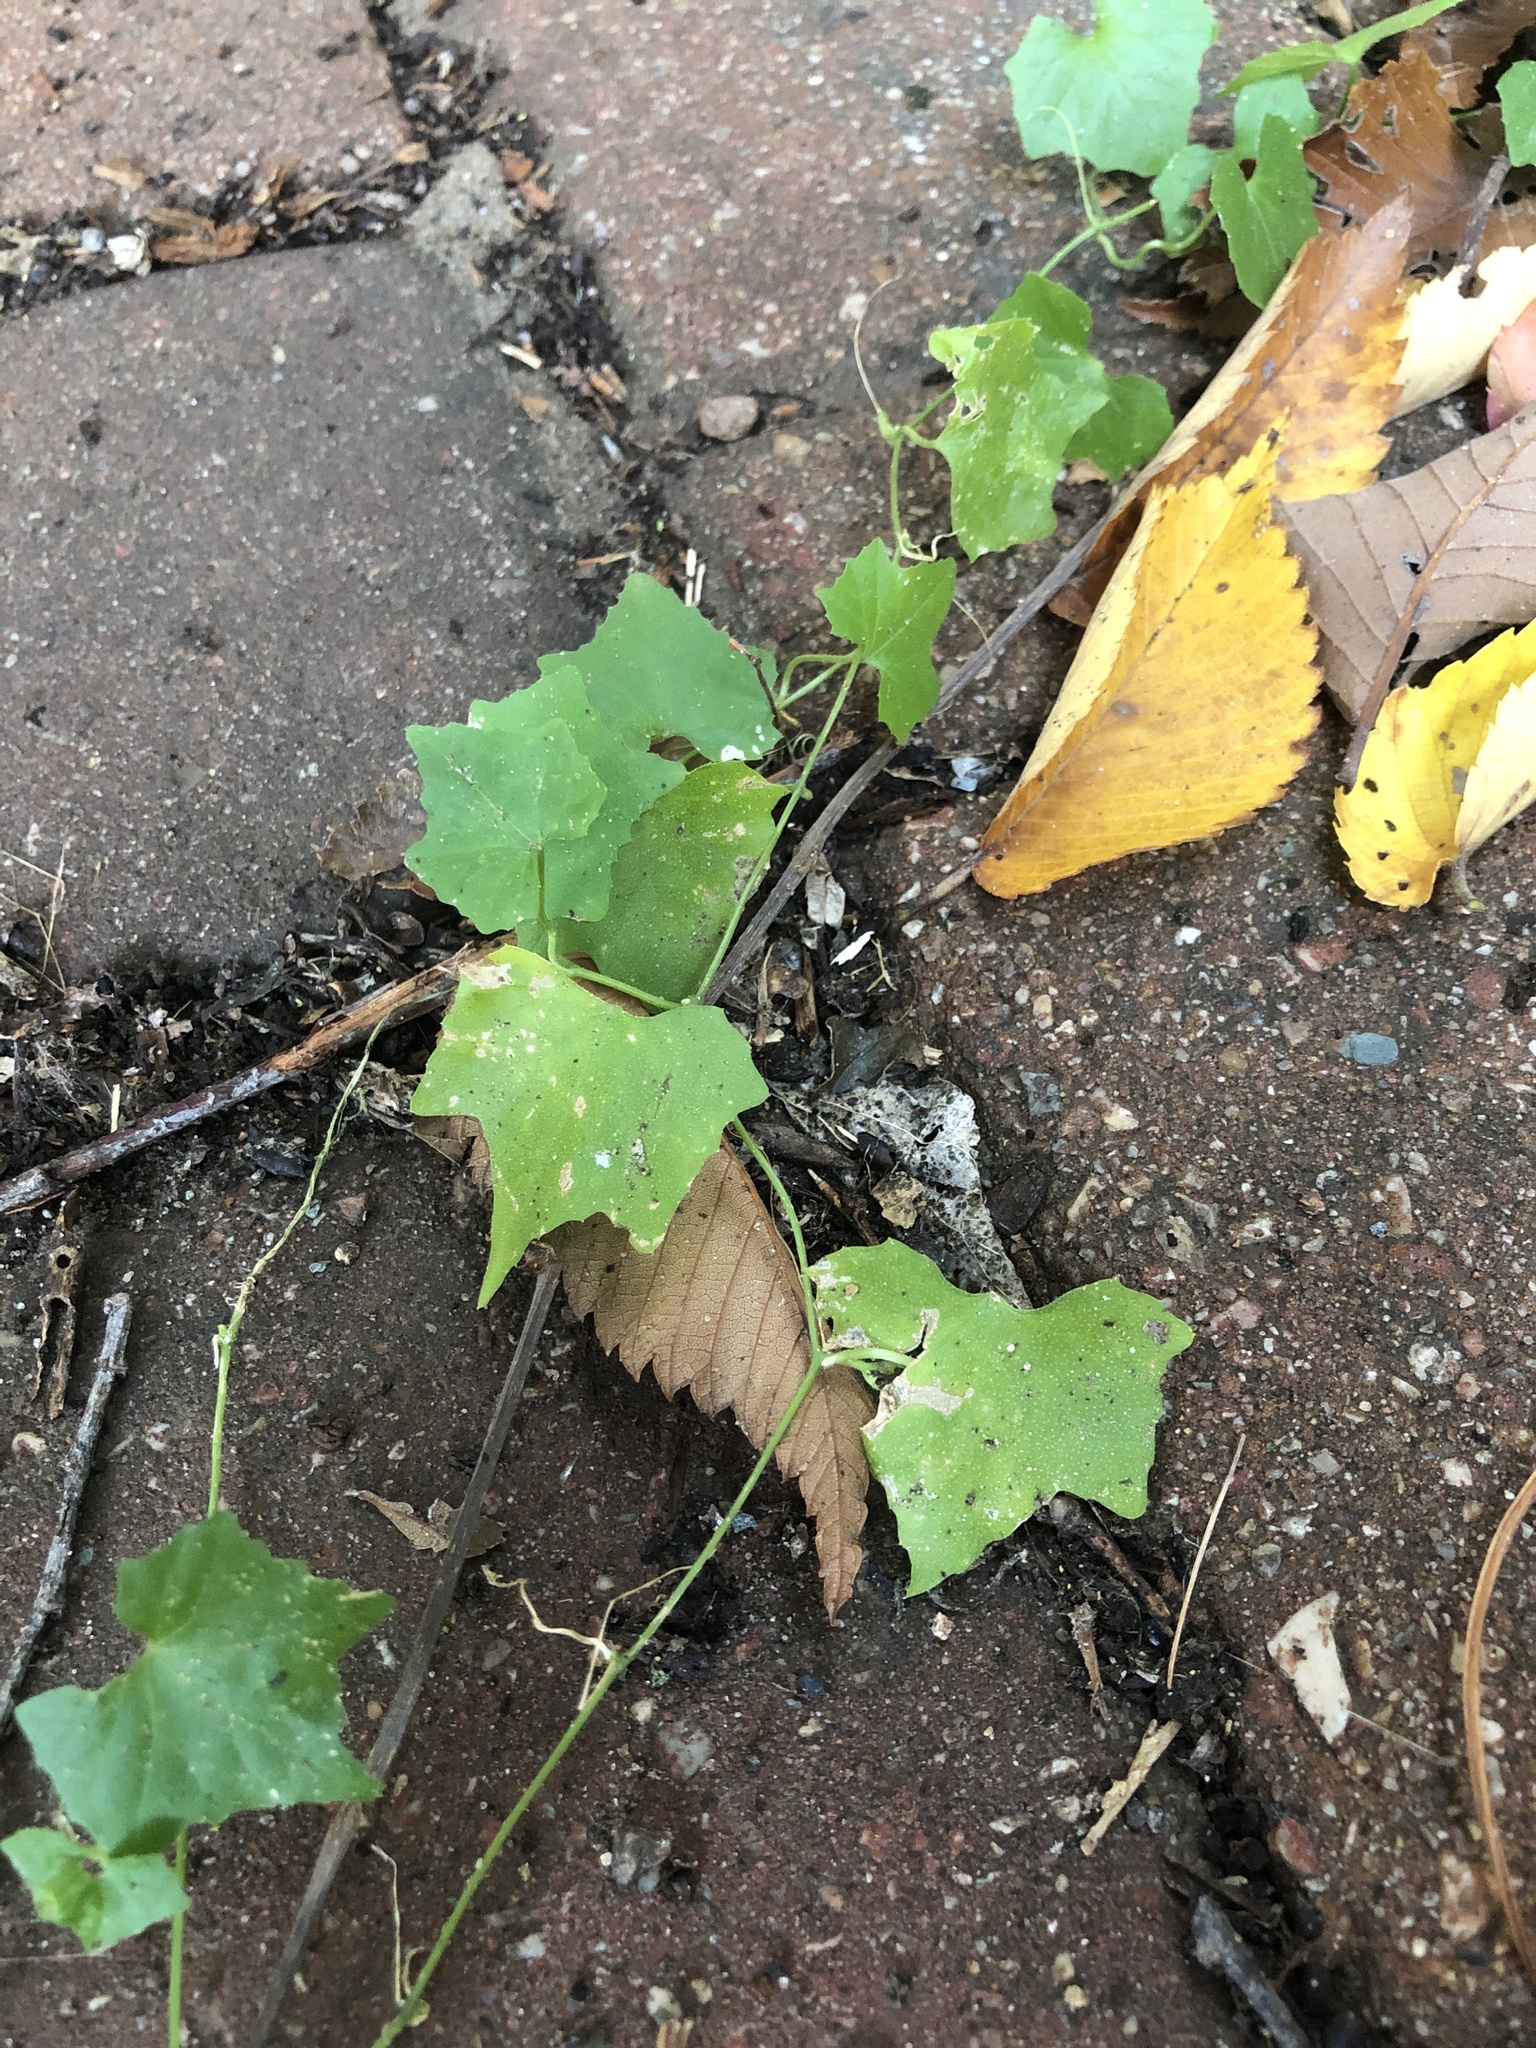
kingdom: Plantae
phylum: Tracheophyta
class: Magnoliopsida
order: Cucurbitales
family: Cucurbitaceae
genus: Melothria
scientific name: Melothria pendula
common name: Creeping-cucumber
